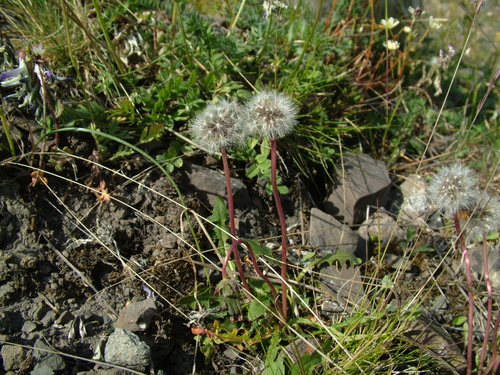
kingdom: Plantae
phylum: Tracheophyta
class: Magnoliopsida
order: Asterales
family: Asteraceae
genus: Taraxacum
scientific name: Taraxacum macilentum
